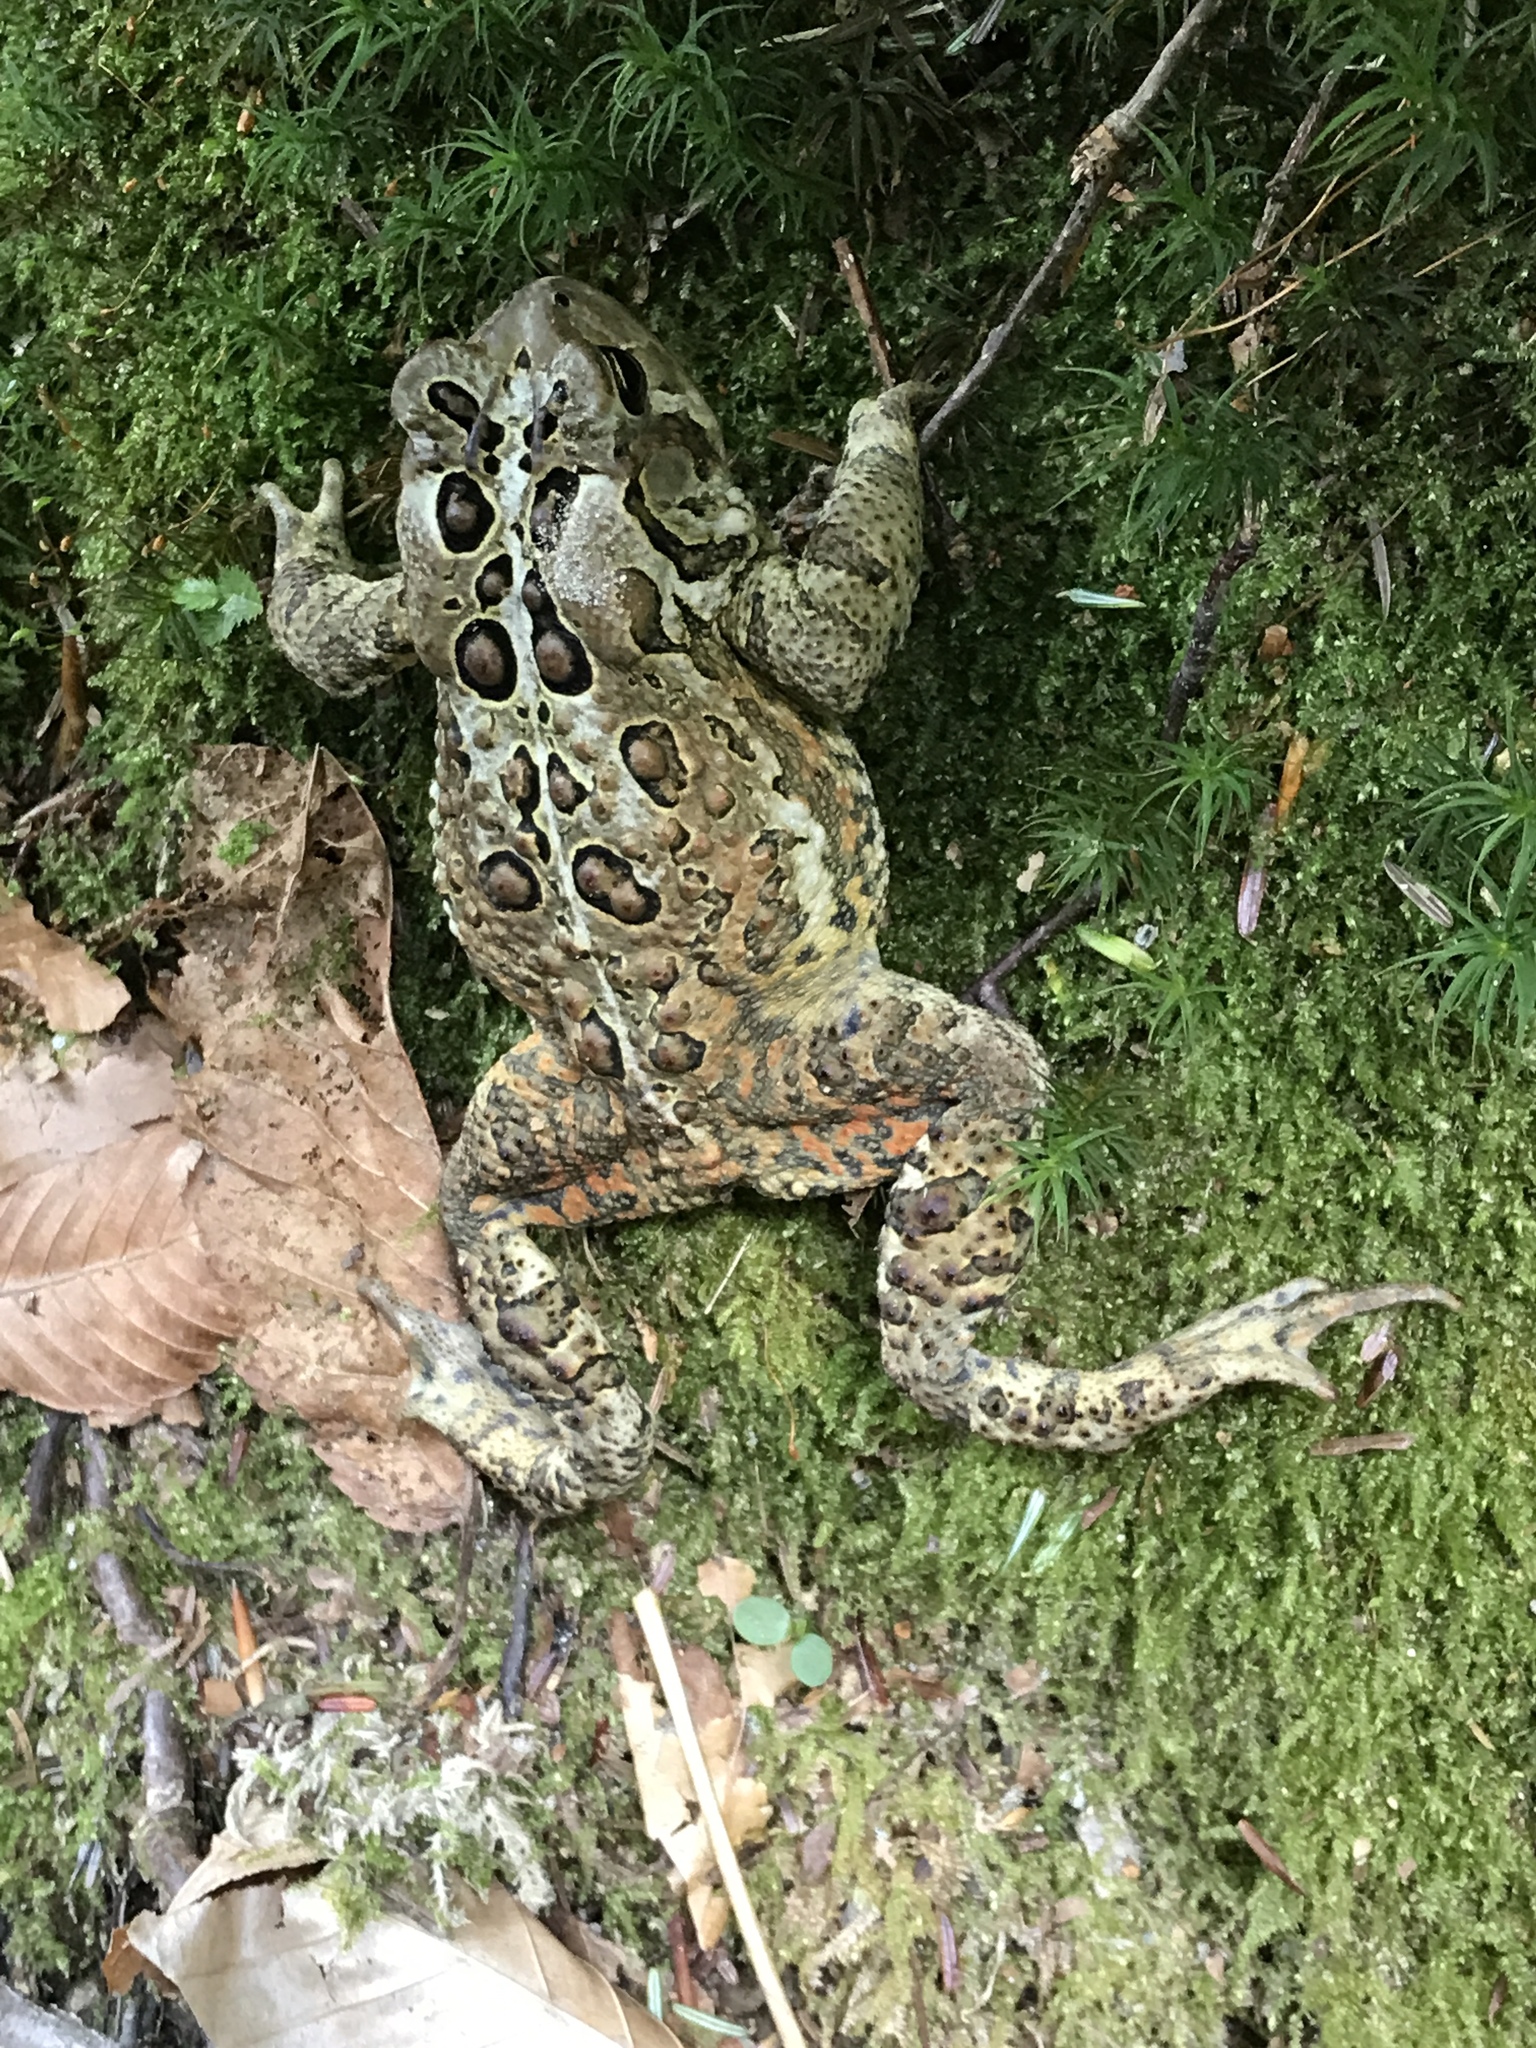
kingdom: Animalia
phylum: Chordata
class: Amphibia
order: Anura
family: Bufonidae
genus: Anaxyrus
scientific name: Anaxyrus americanus
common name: American toad
